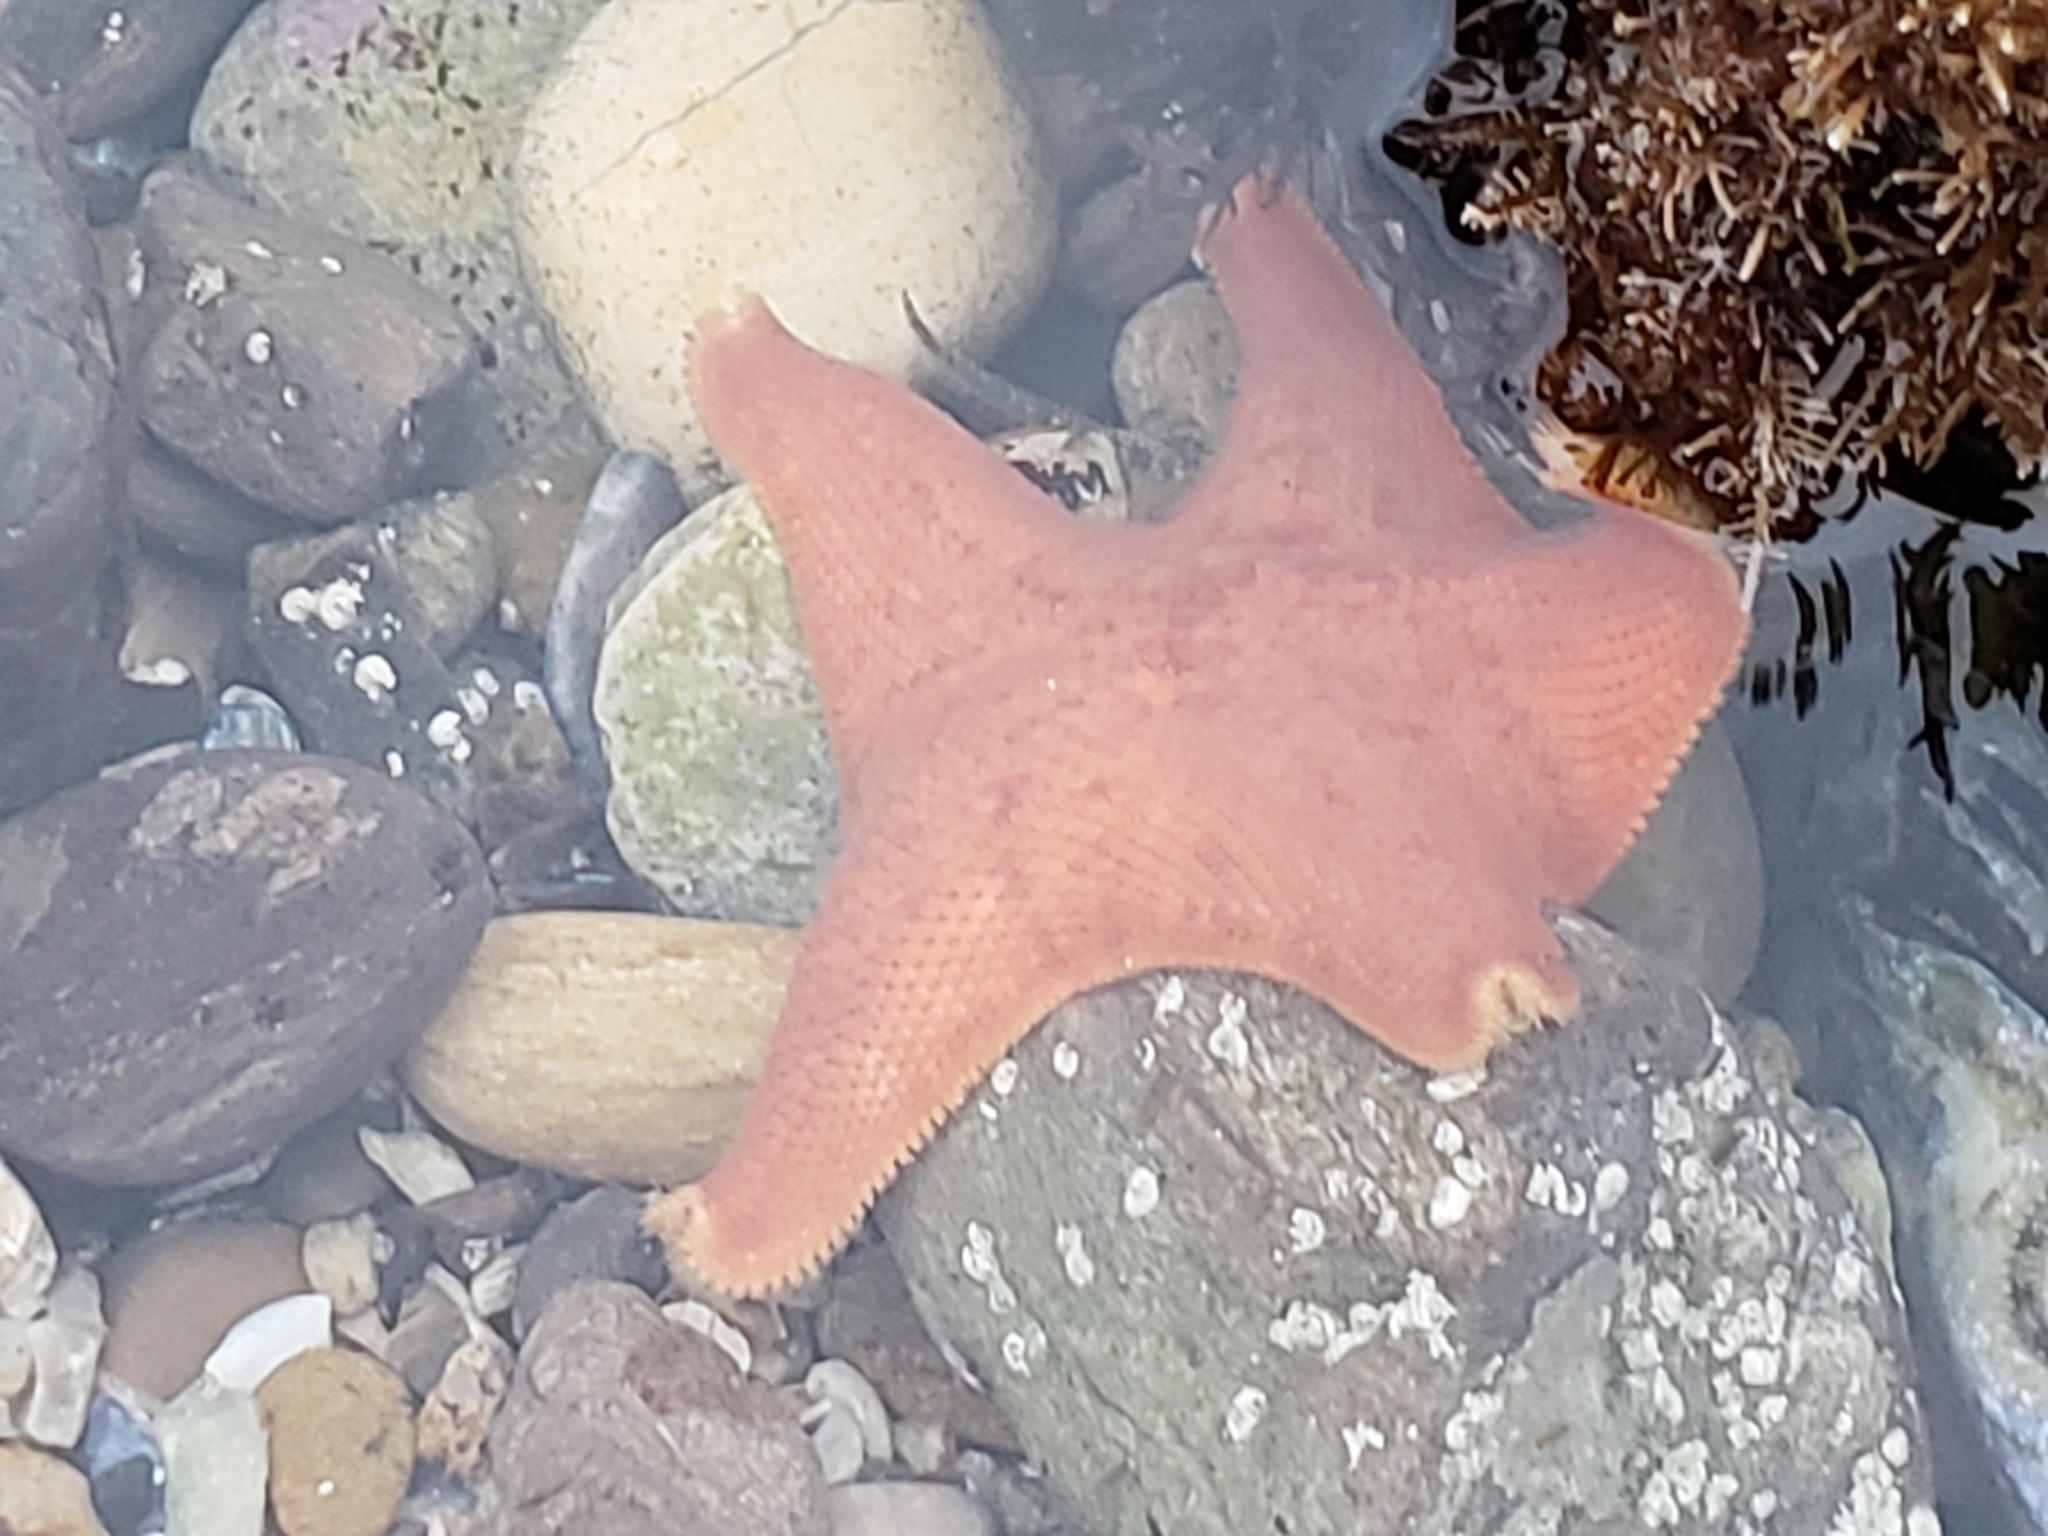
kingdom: Animalia
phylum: Echinodermata
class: Asteroidea
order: Valvatida
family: Asterinidae
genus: Patiria
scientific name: Patiria miniata
